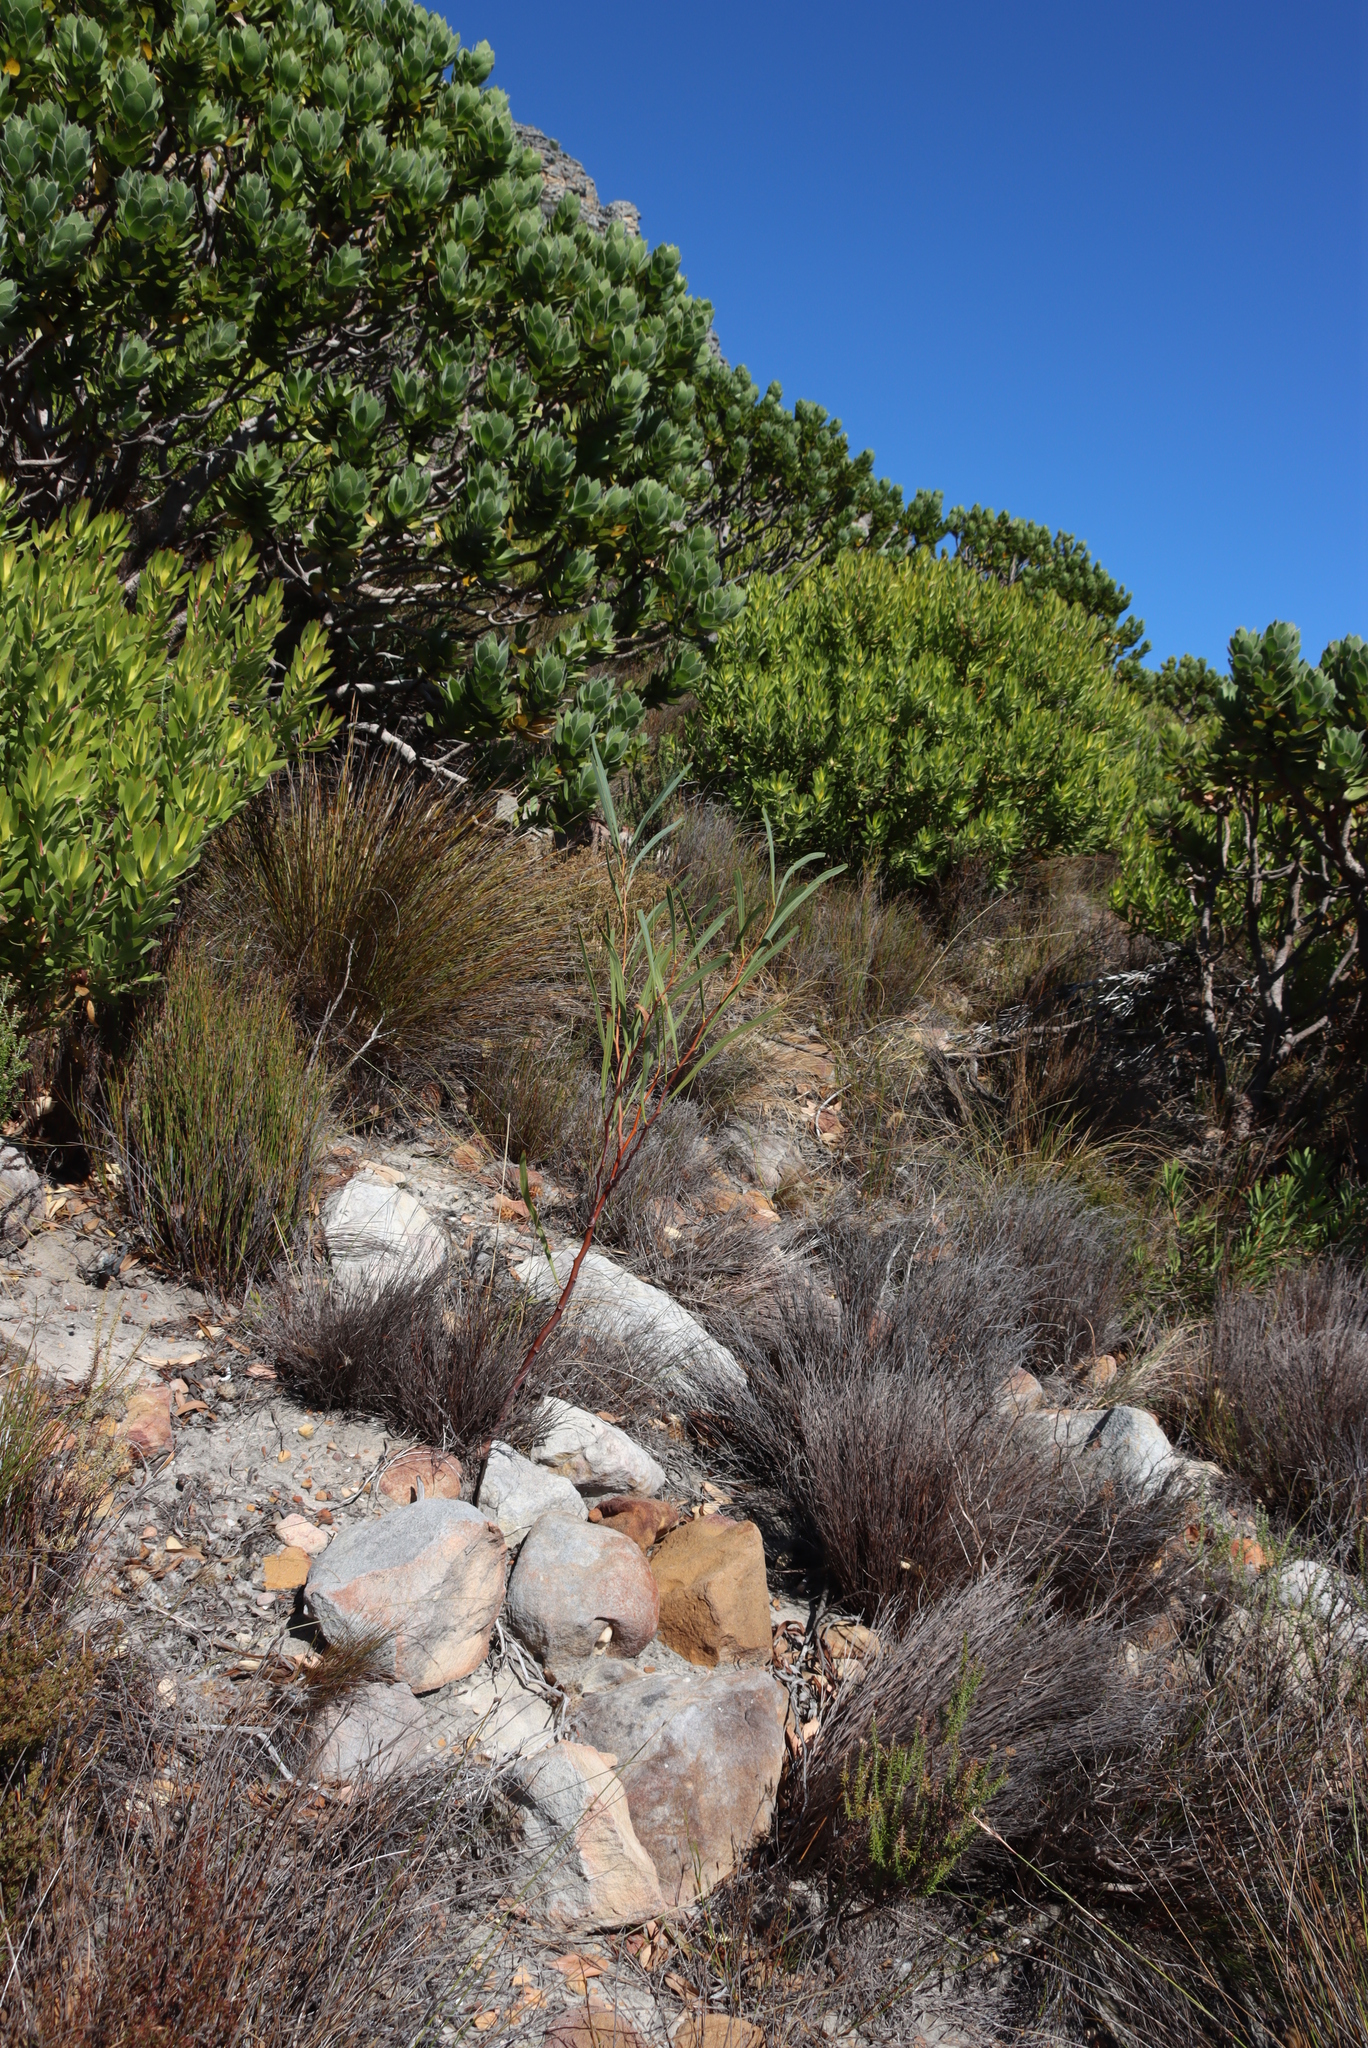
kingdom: Plantae
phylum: Tracheophyta
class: Magnoliopsida
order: Fabales
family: Fabaceae
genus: Acacia
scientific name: Acacia saligna
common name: Orange wattle
